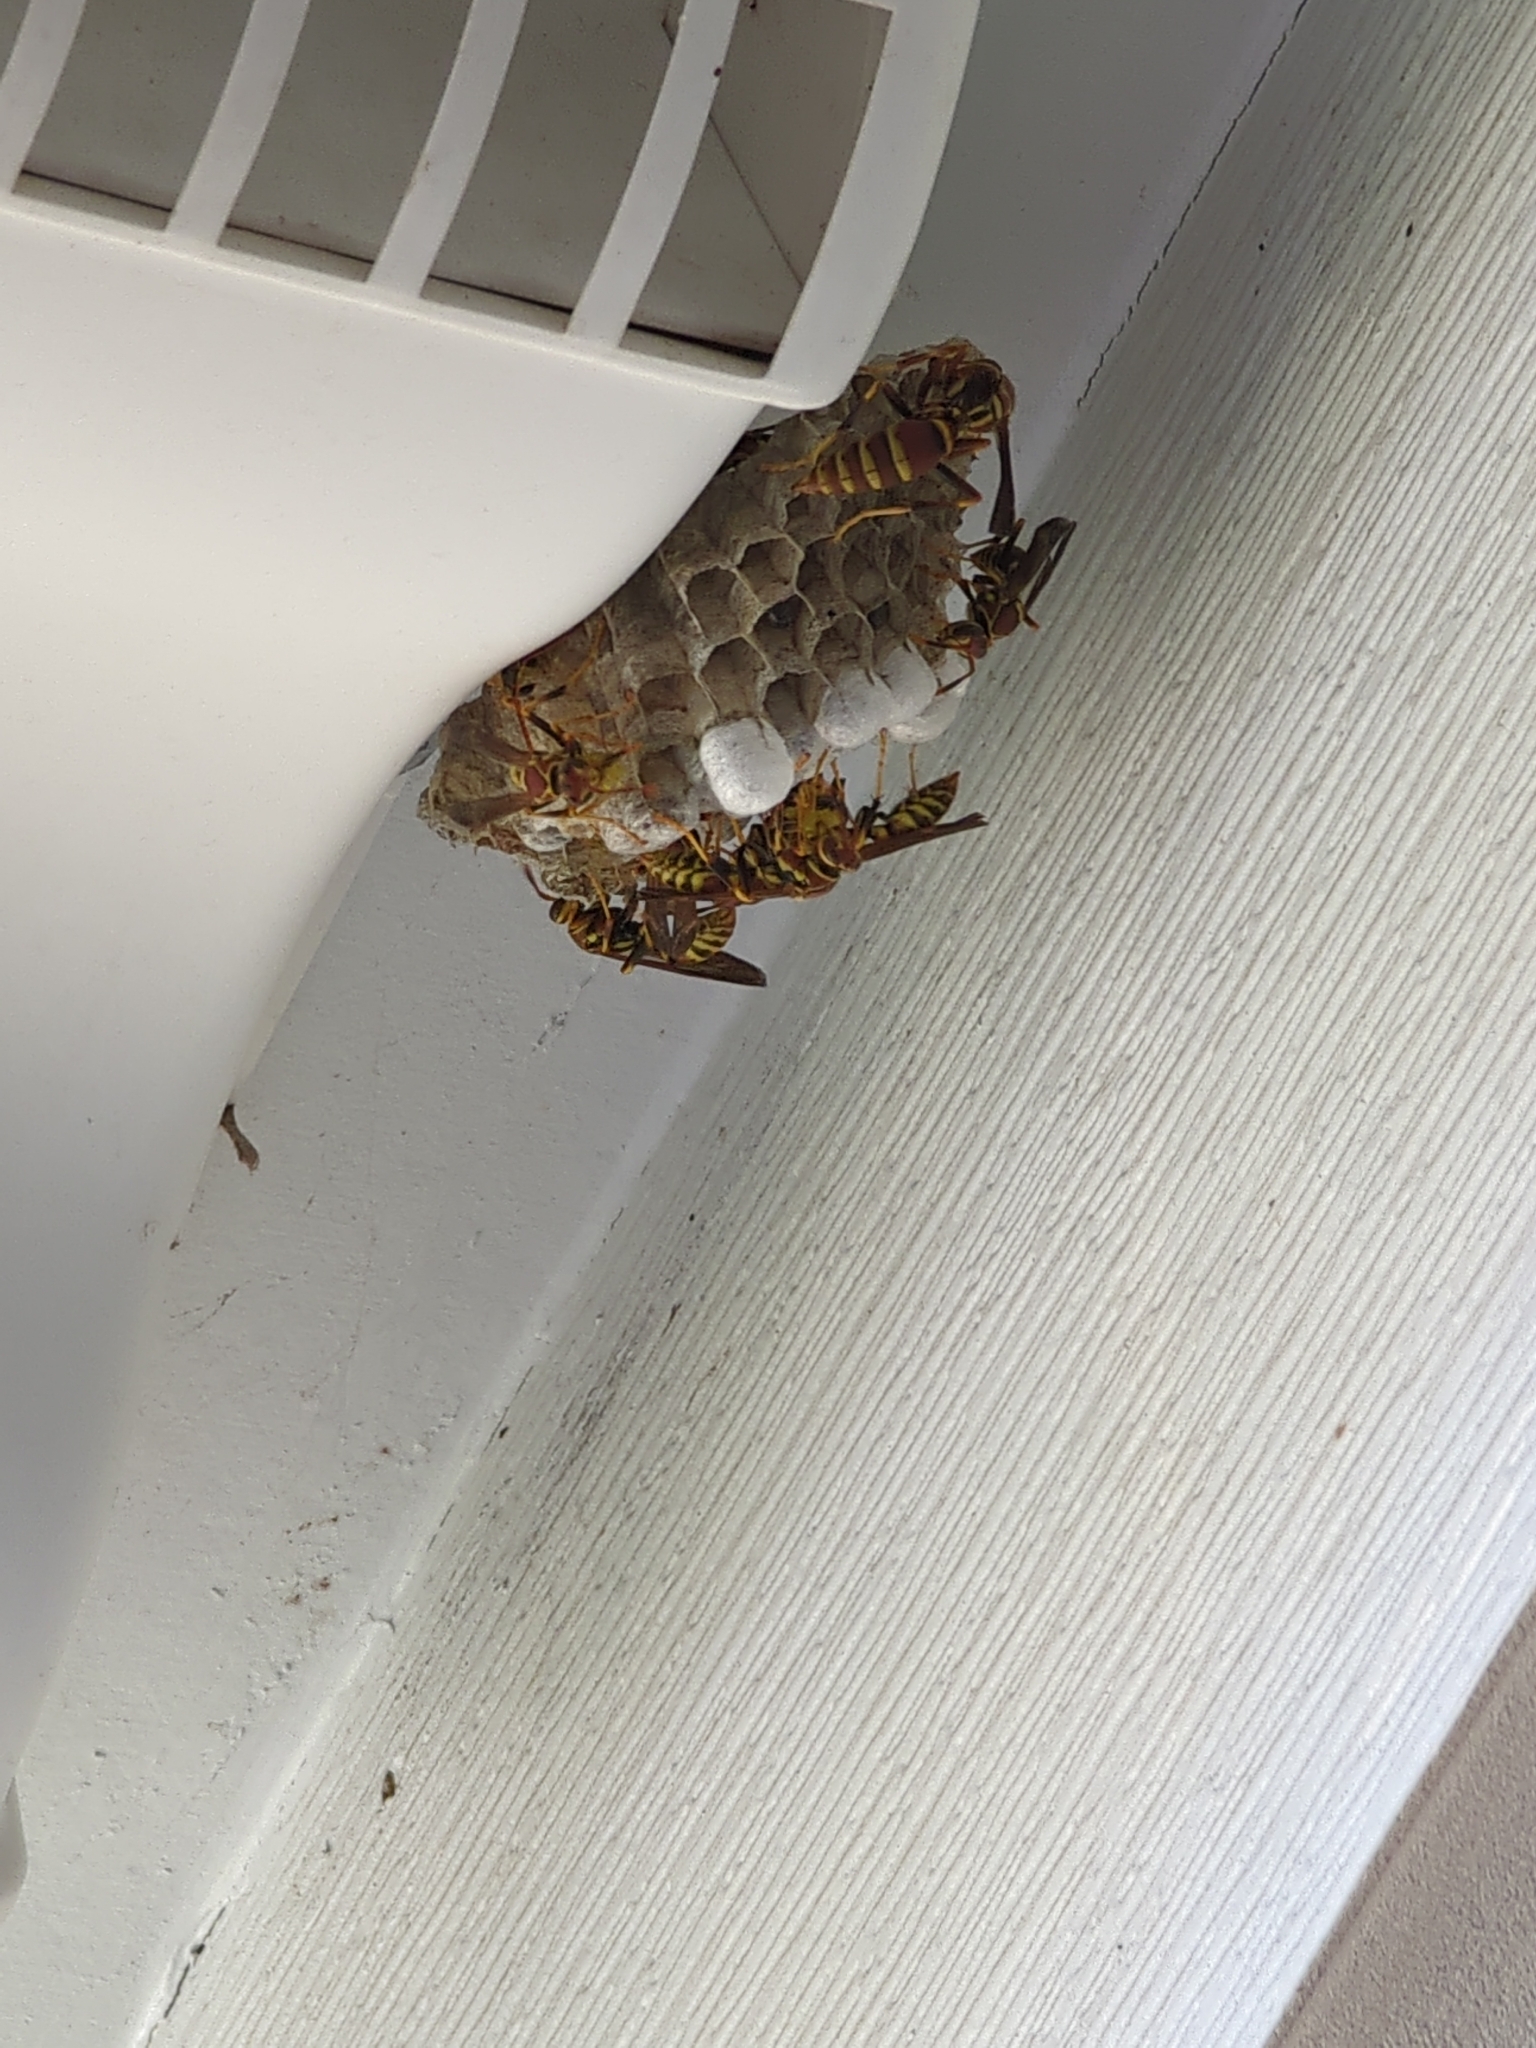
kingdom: Animalia
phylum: Arthropoda
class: Insecta
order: Hymenoptera
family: Eumenidae
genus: Polistes
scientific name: Polistes exclamans
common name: Paper wasp
